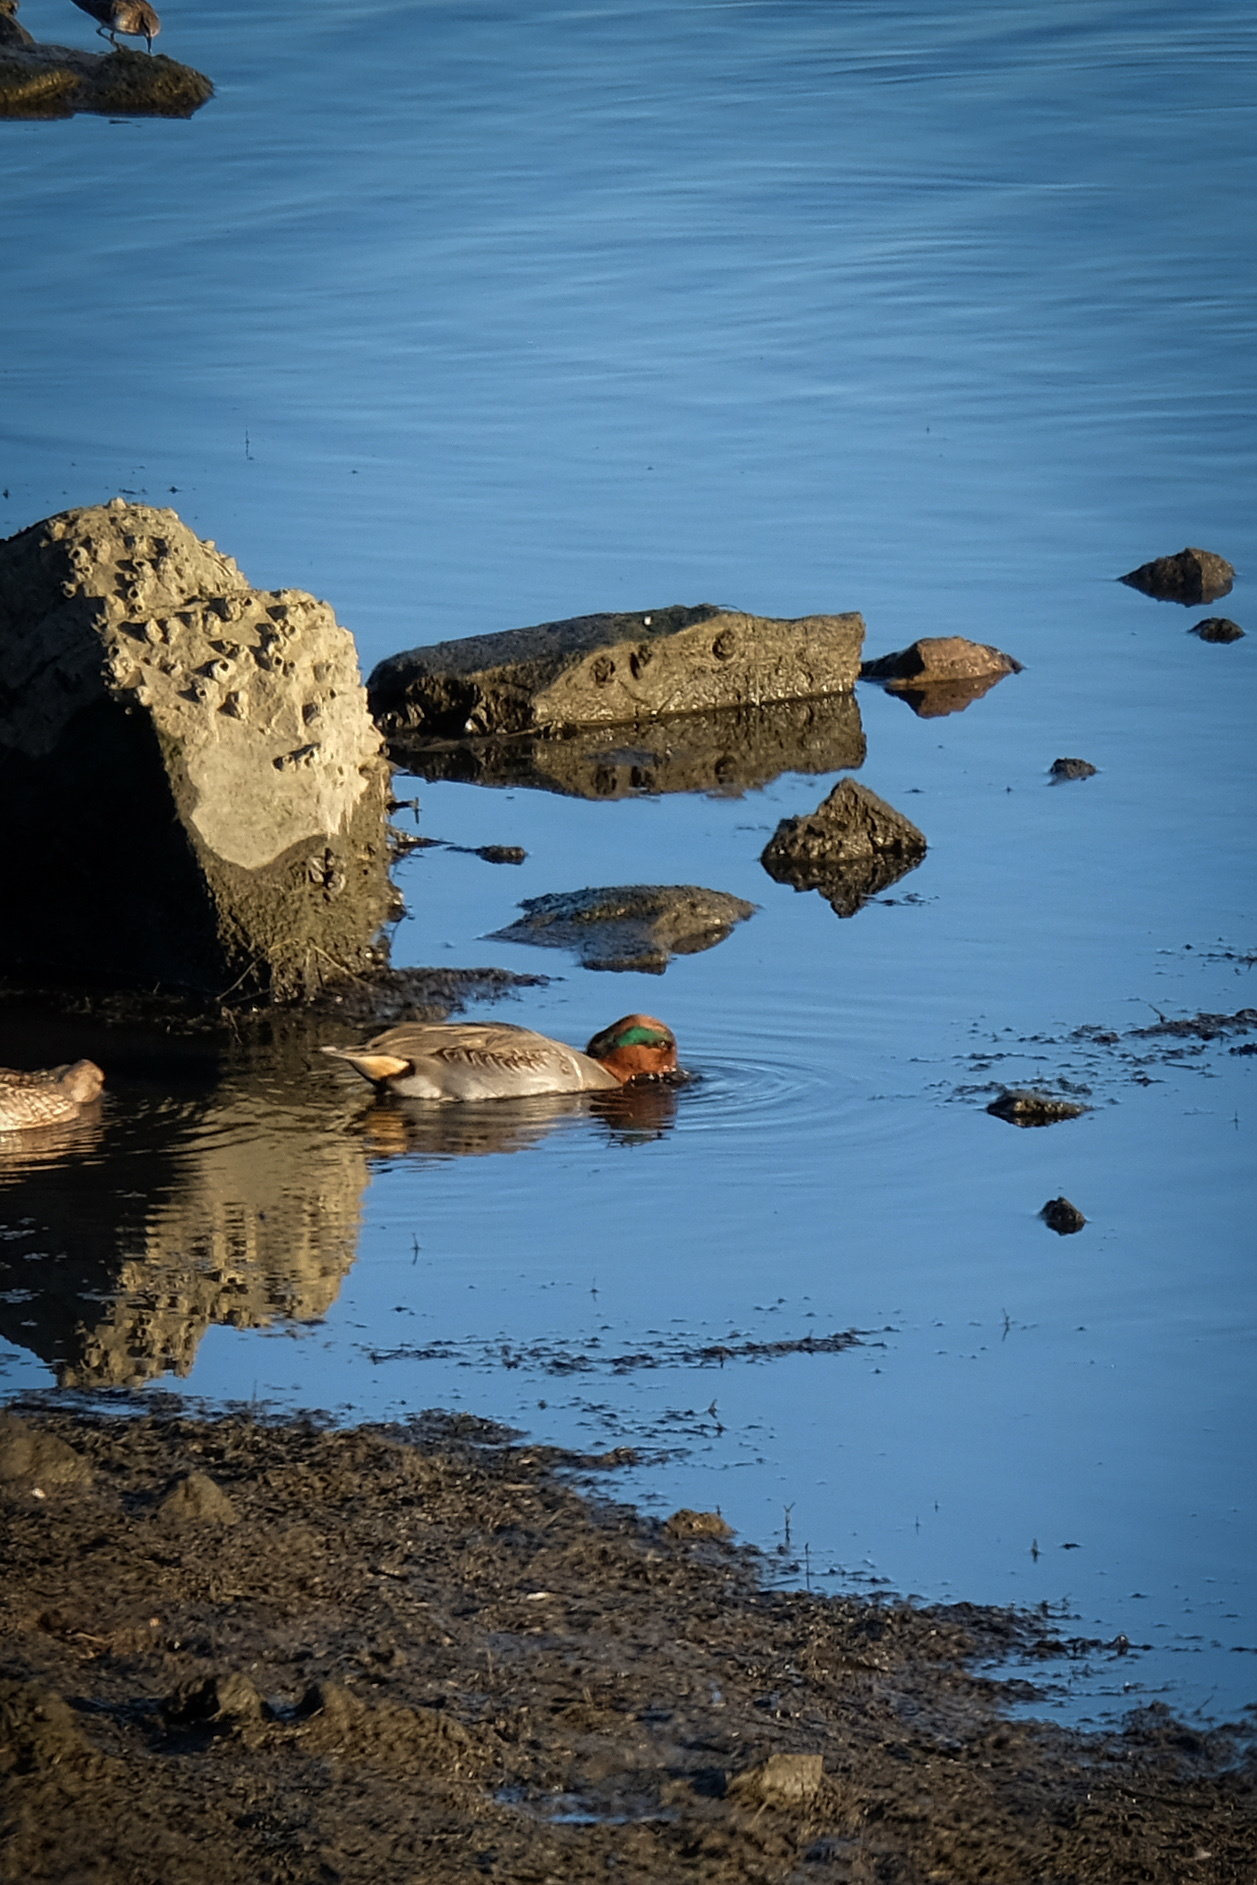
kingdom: Animalia
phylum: Chordata
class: Aves
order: Anseriformes
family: Anatidae
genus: Anas
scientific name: Anas crecca
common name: Eurasian teal
